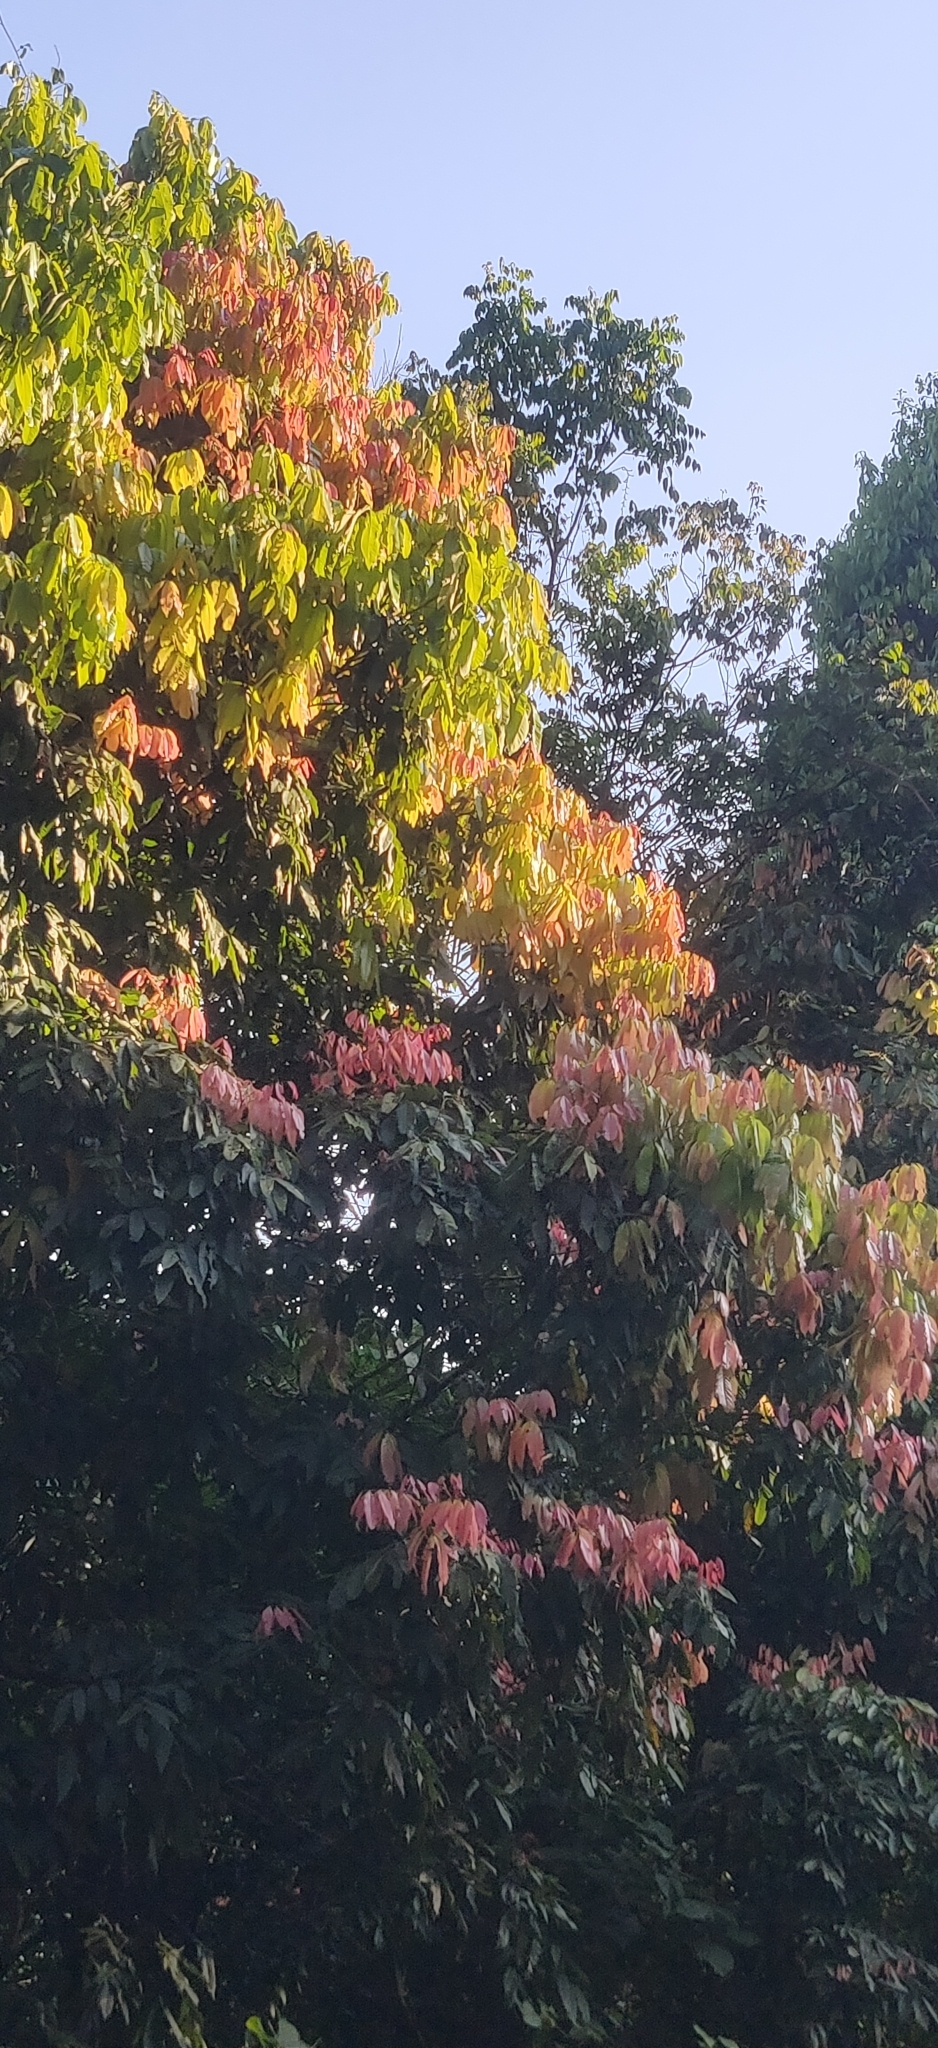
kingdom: Plantae
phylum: Tracheophyta
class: Magnoliopsida
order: Sapindales
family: Sapindaceae
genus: Dimocarpus
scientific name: Dimocarpus longan
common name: Longan
